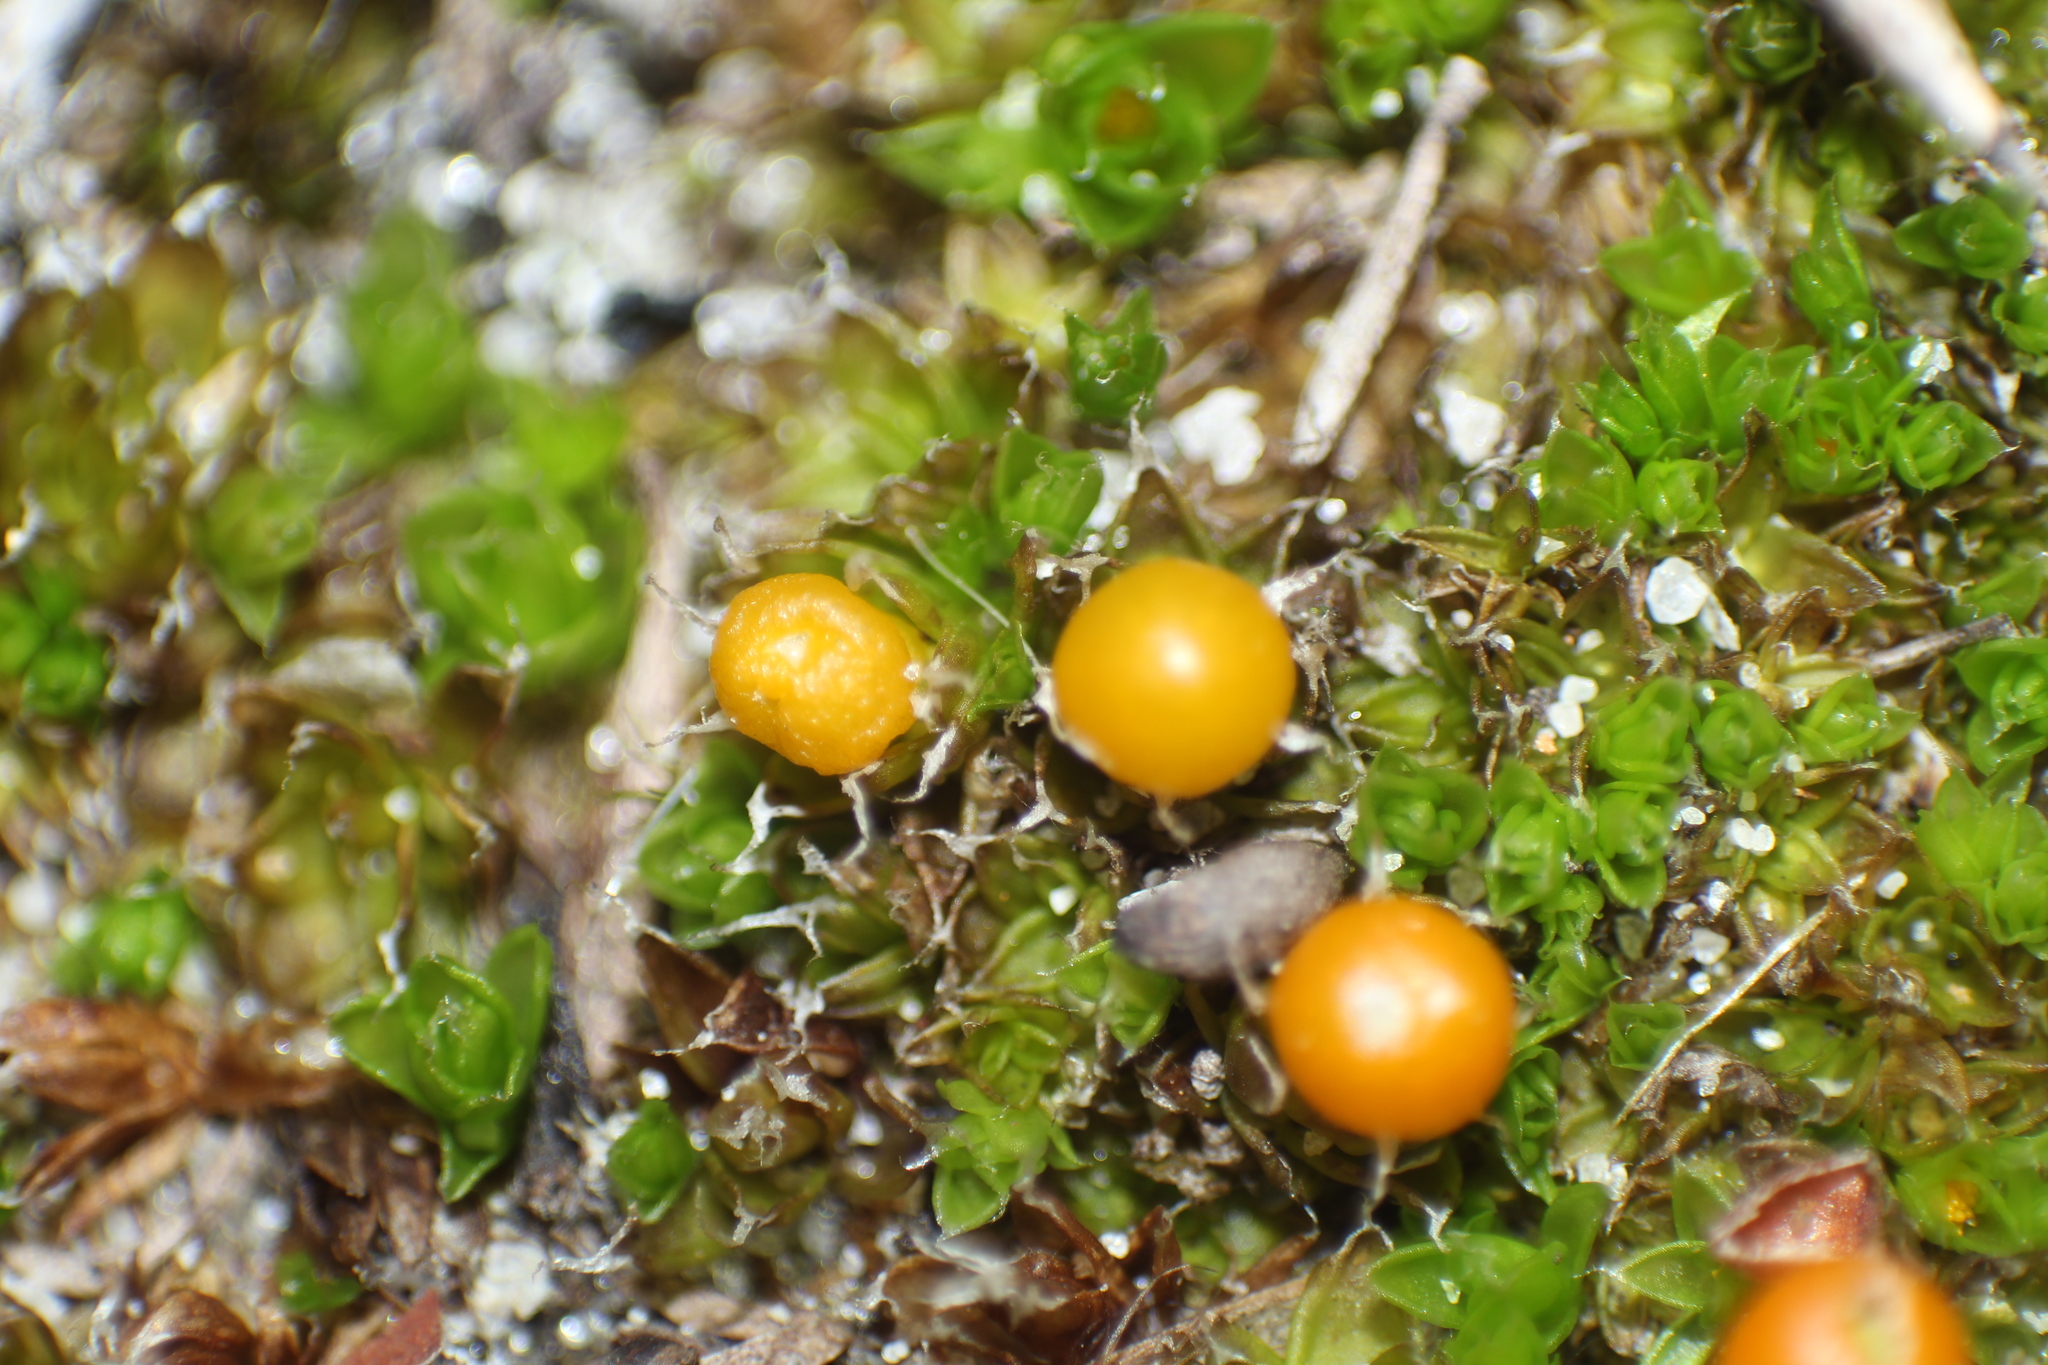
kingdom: Plantae
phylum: Bryophyta
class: Bryopsida
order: Pottiales
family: Pleurophascaceae
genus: Pleurophascum
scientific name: Pleurophascum occidentale
